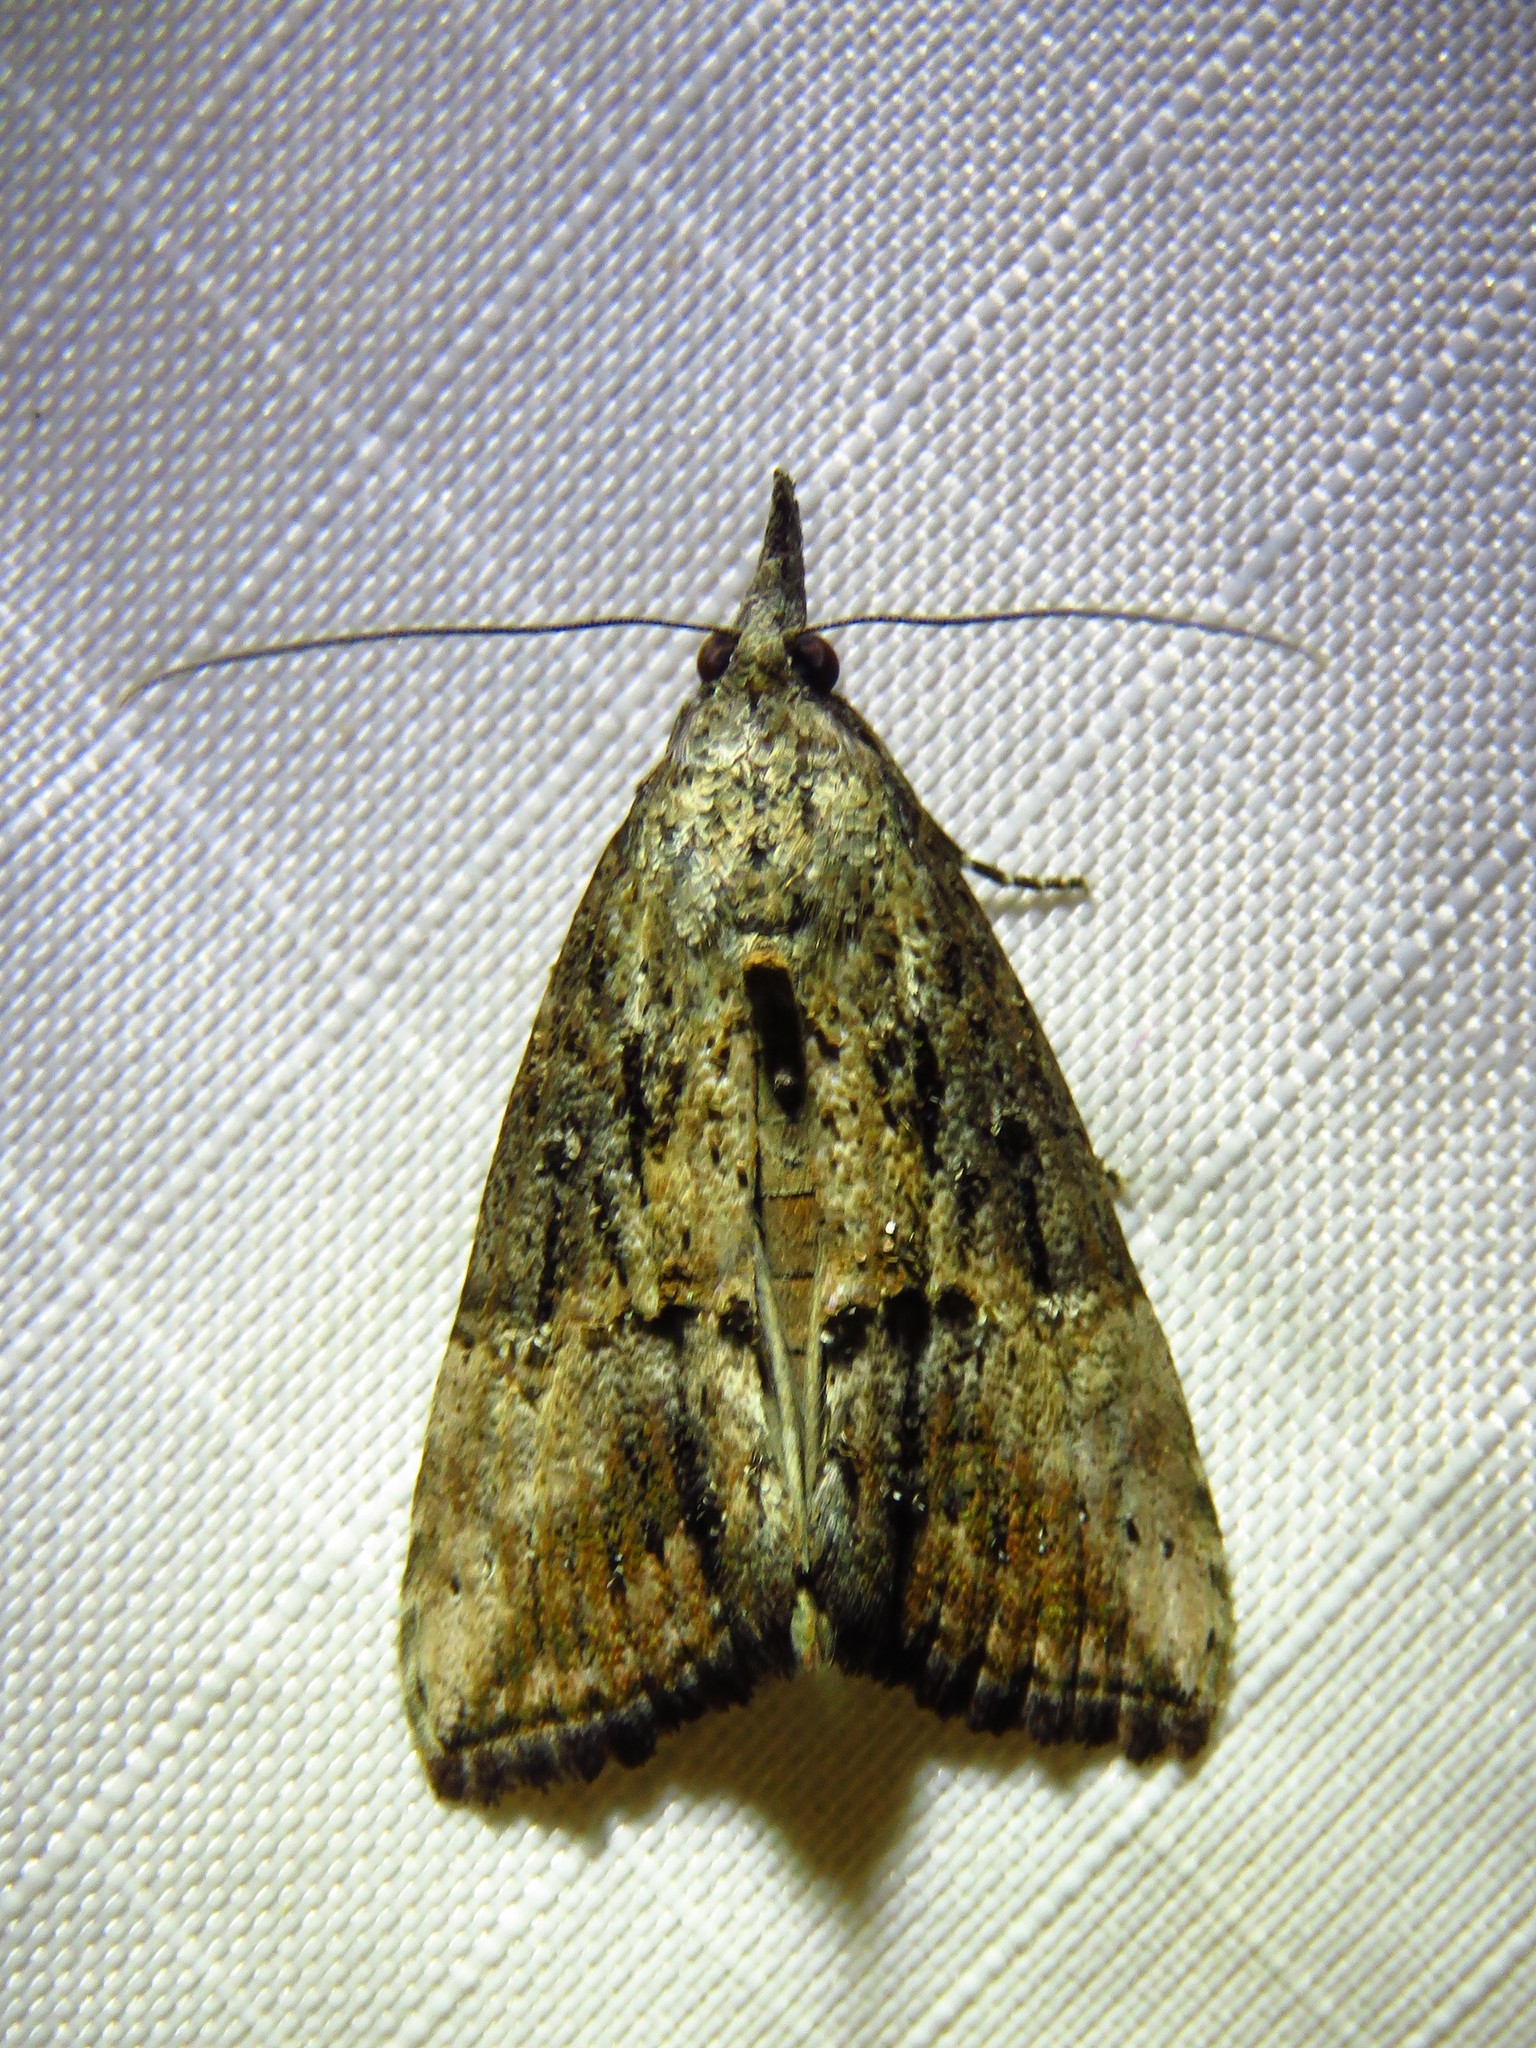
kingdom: Animalia
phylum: Arthropoda
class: Insecta
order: Lepidoptera
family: Erebidae
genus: Hypena
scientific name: Hypena scabra
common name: Green cloverworm
